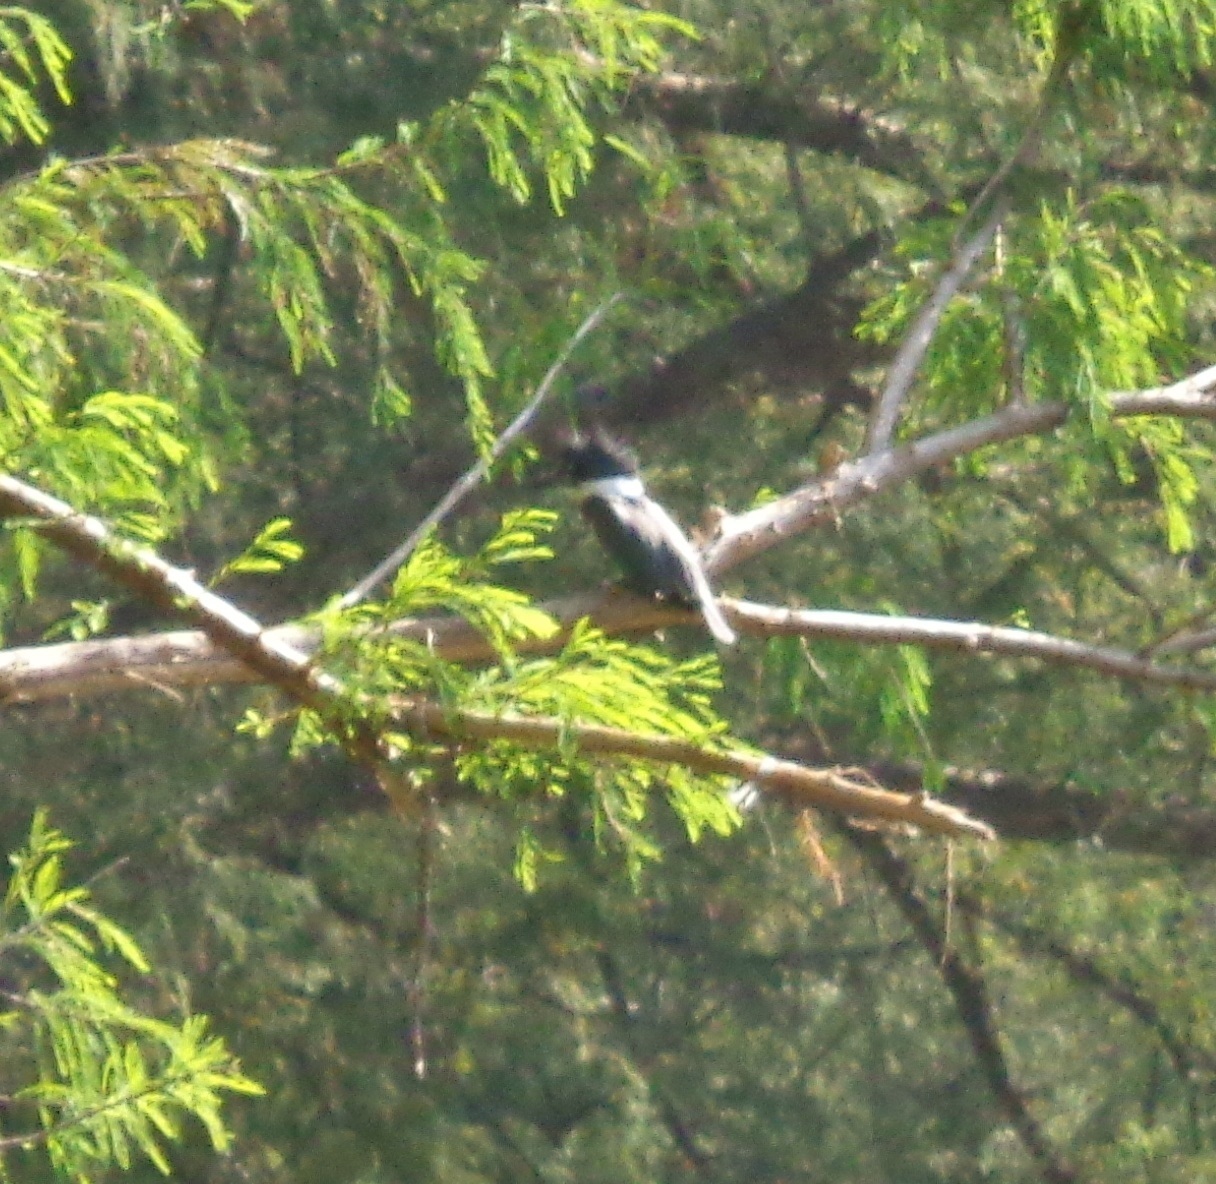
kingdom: Animalia
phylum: Chordata
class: Aves
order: Coraciiformes
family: Alcedinidae
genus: Megaceryle
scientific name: Megaceryle alcyon
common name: Belted kingfisher
